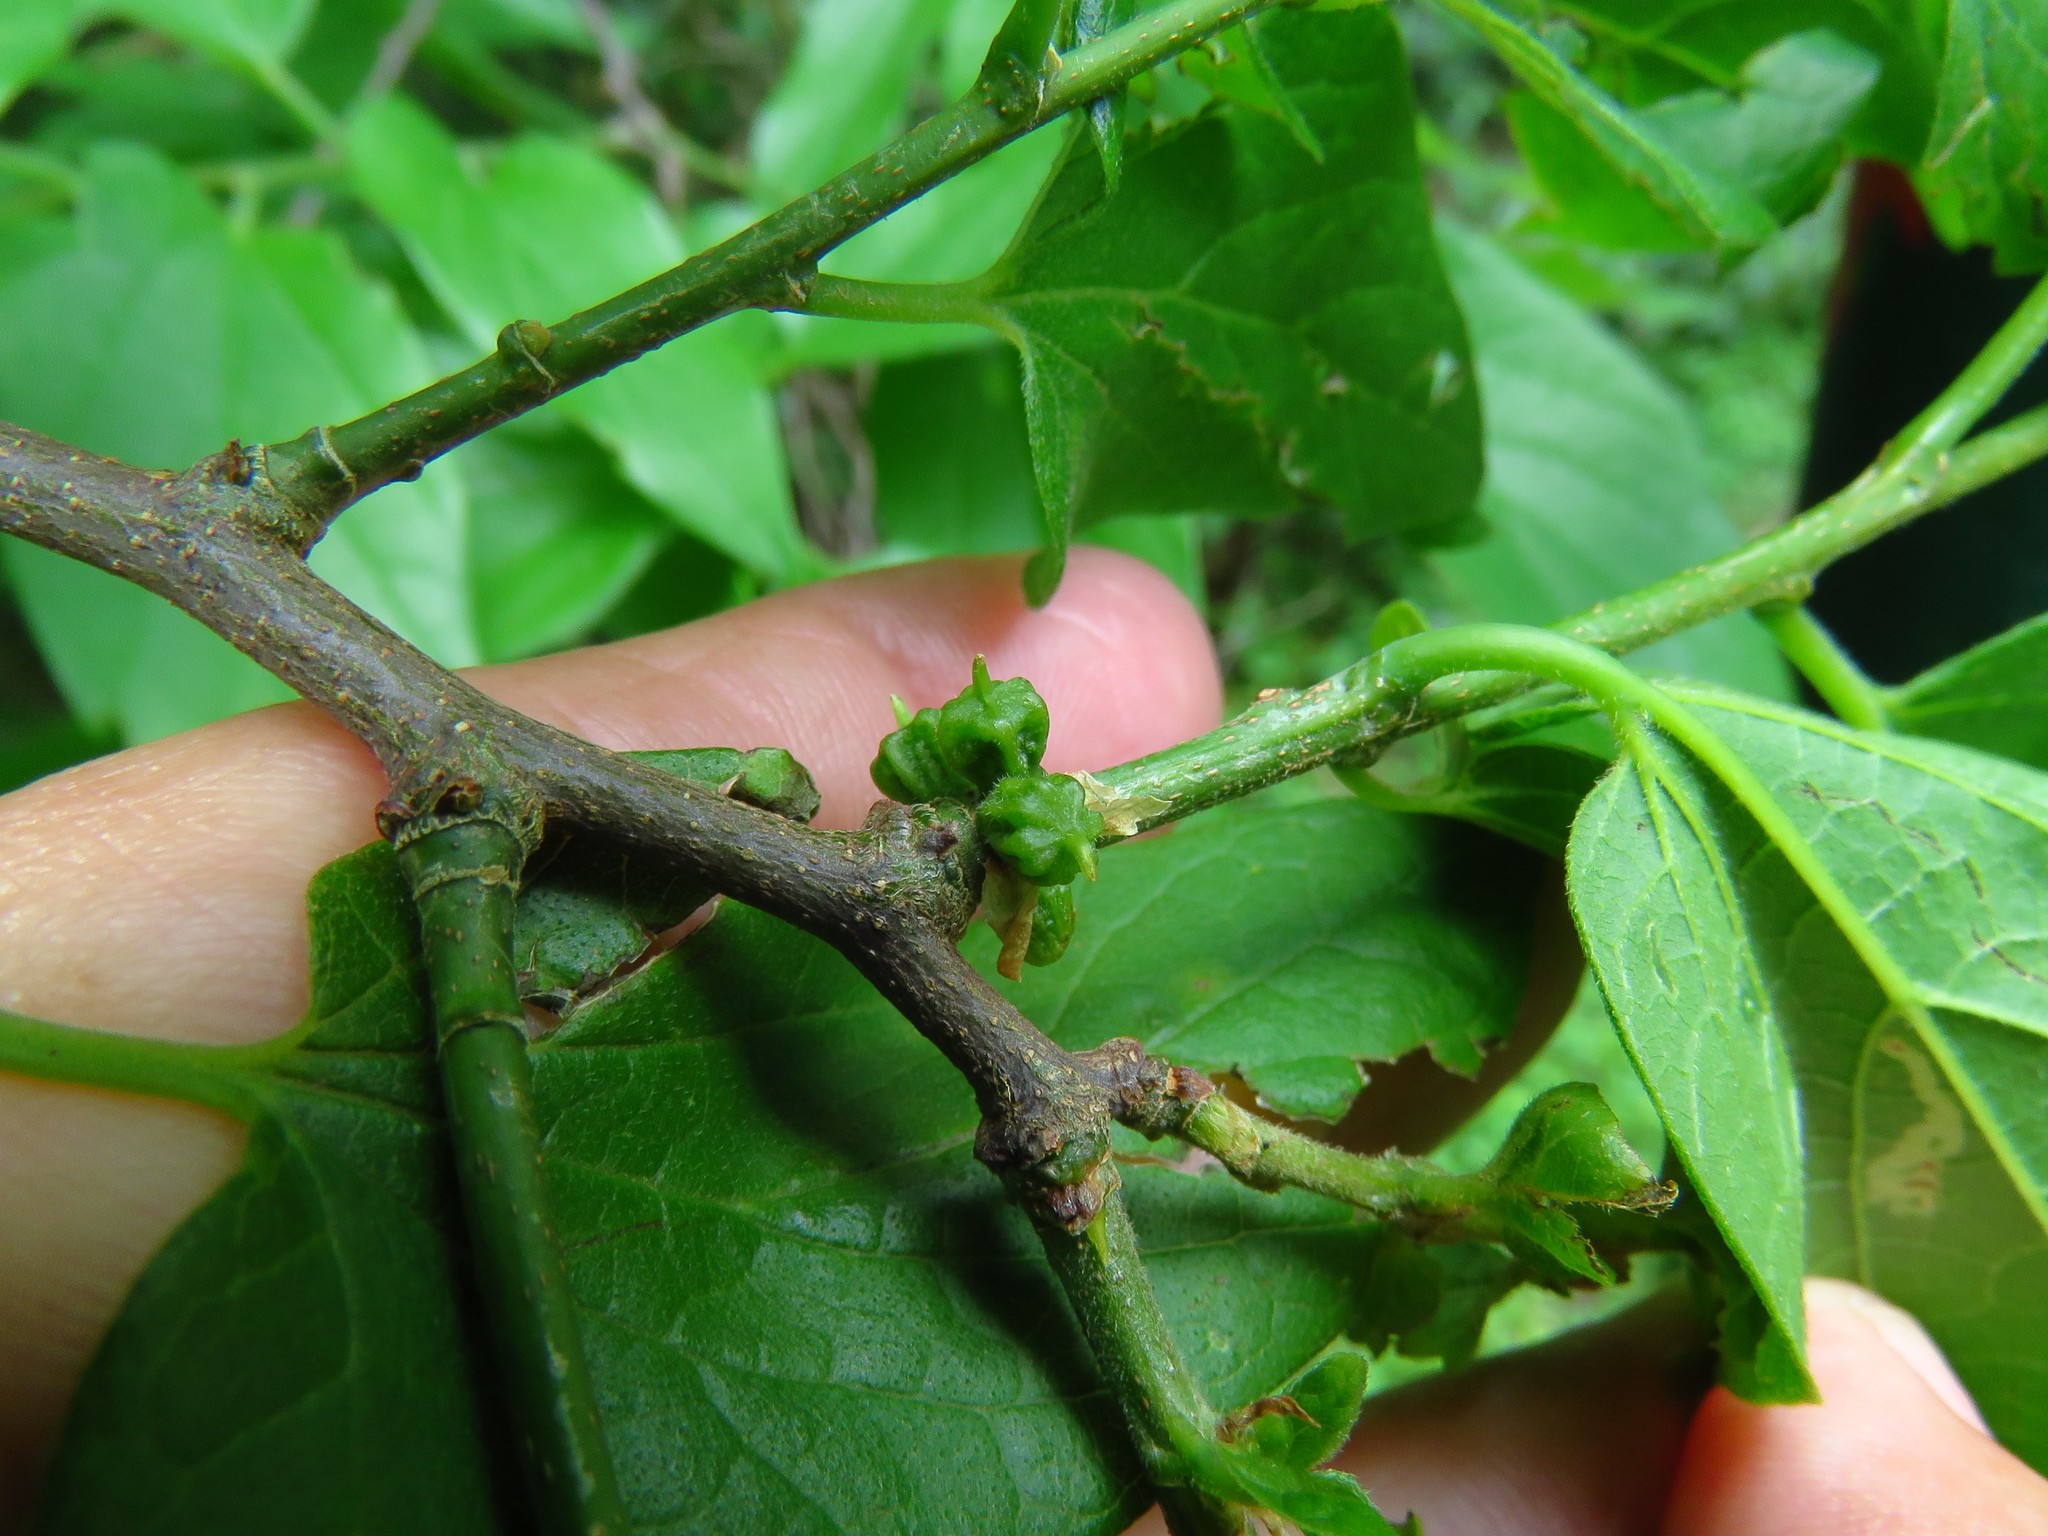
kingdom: Animalia
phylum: Arthropoda
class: Insecta
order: Diptera
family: Cecidomyiidae
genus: Celticecis
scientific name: Celticecis ramicola
